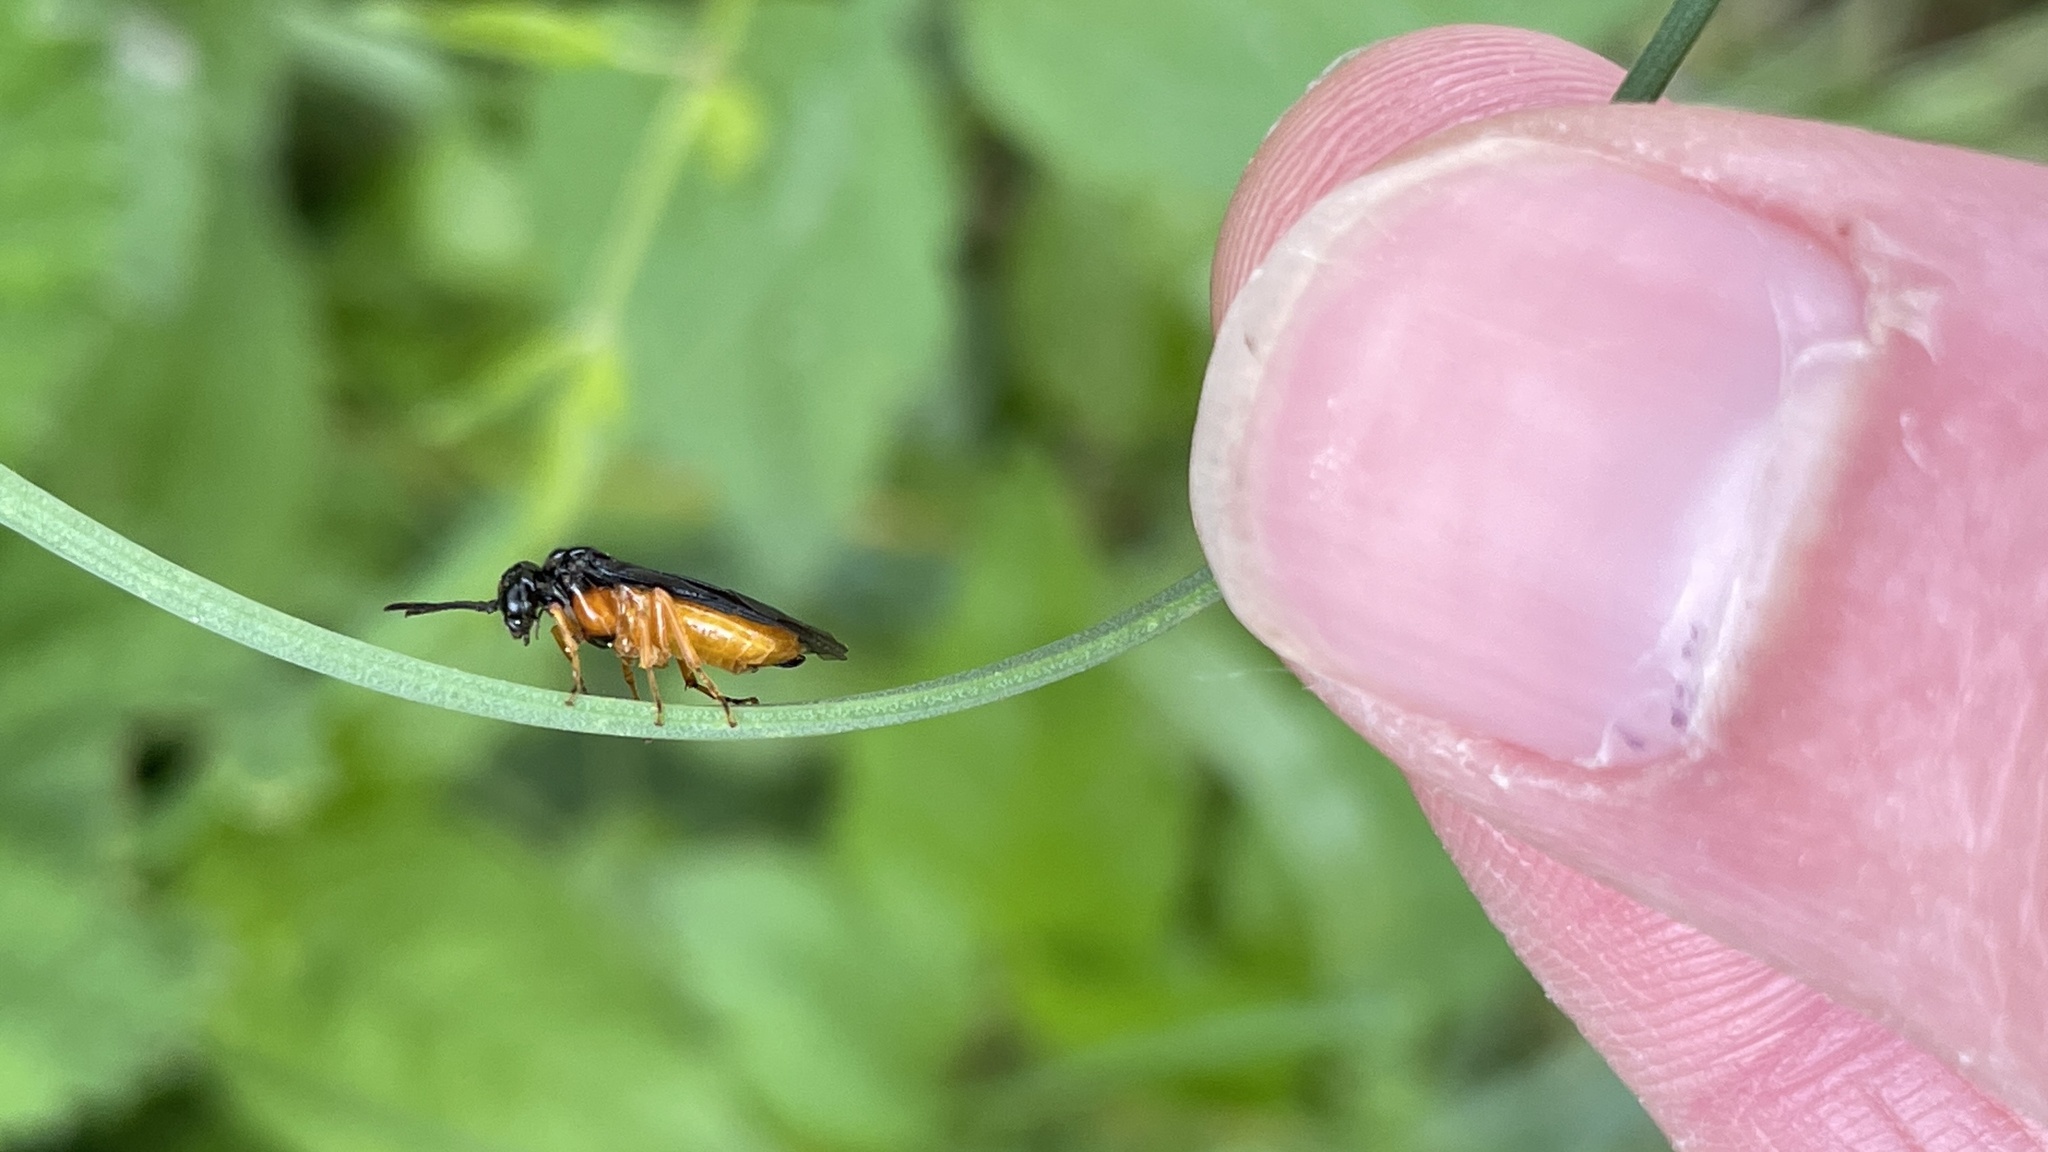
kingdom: Animalia
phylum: Arthropoda
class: Insecta
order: Hymenoptera
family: Tenthredinidae
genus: Monophadnus
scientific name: Monophadnus spinolae
